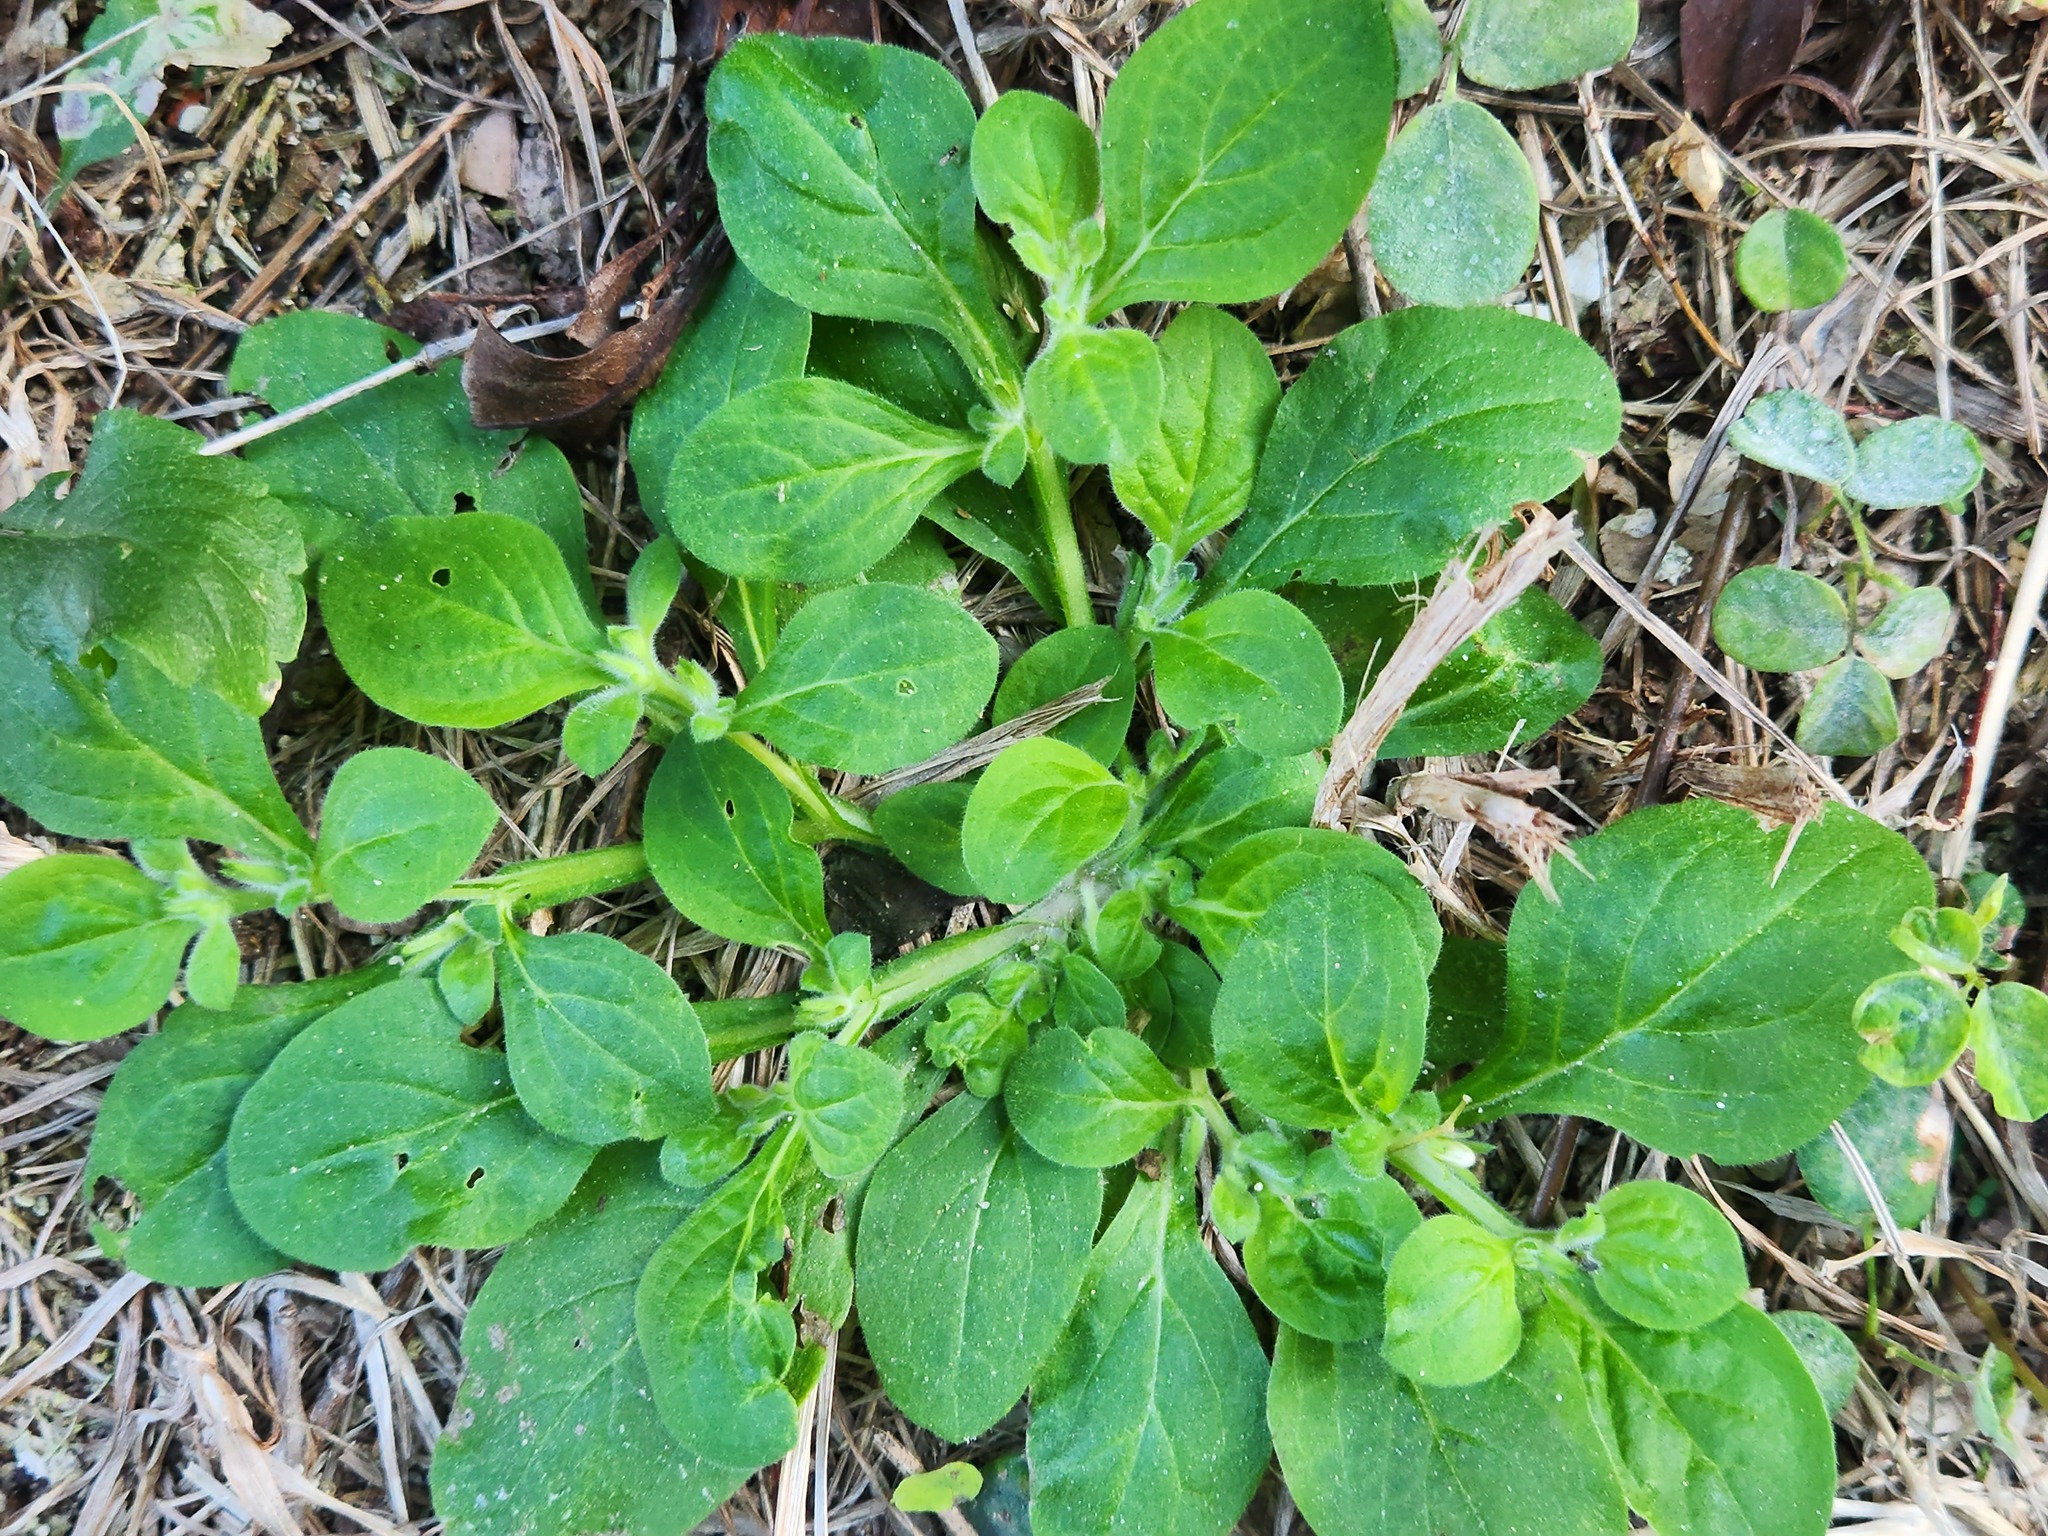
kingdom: Plantae
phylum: Tracheophyta
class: Magnoliopsida
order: Boraginales
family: Namaceae
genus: Nama
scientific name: Nama jamaicensis
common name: Jamaicanweed
